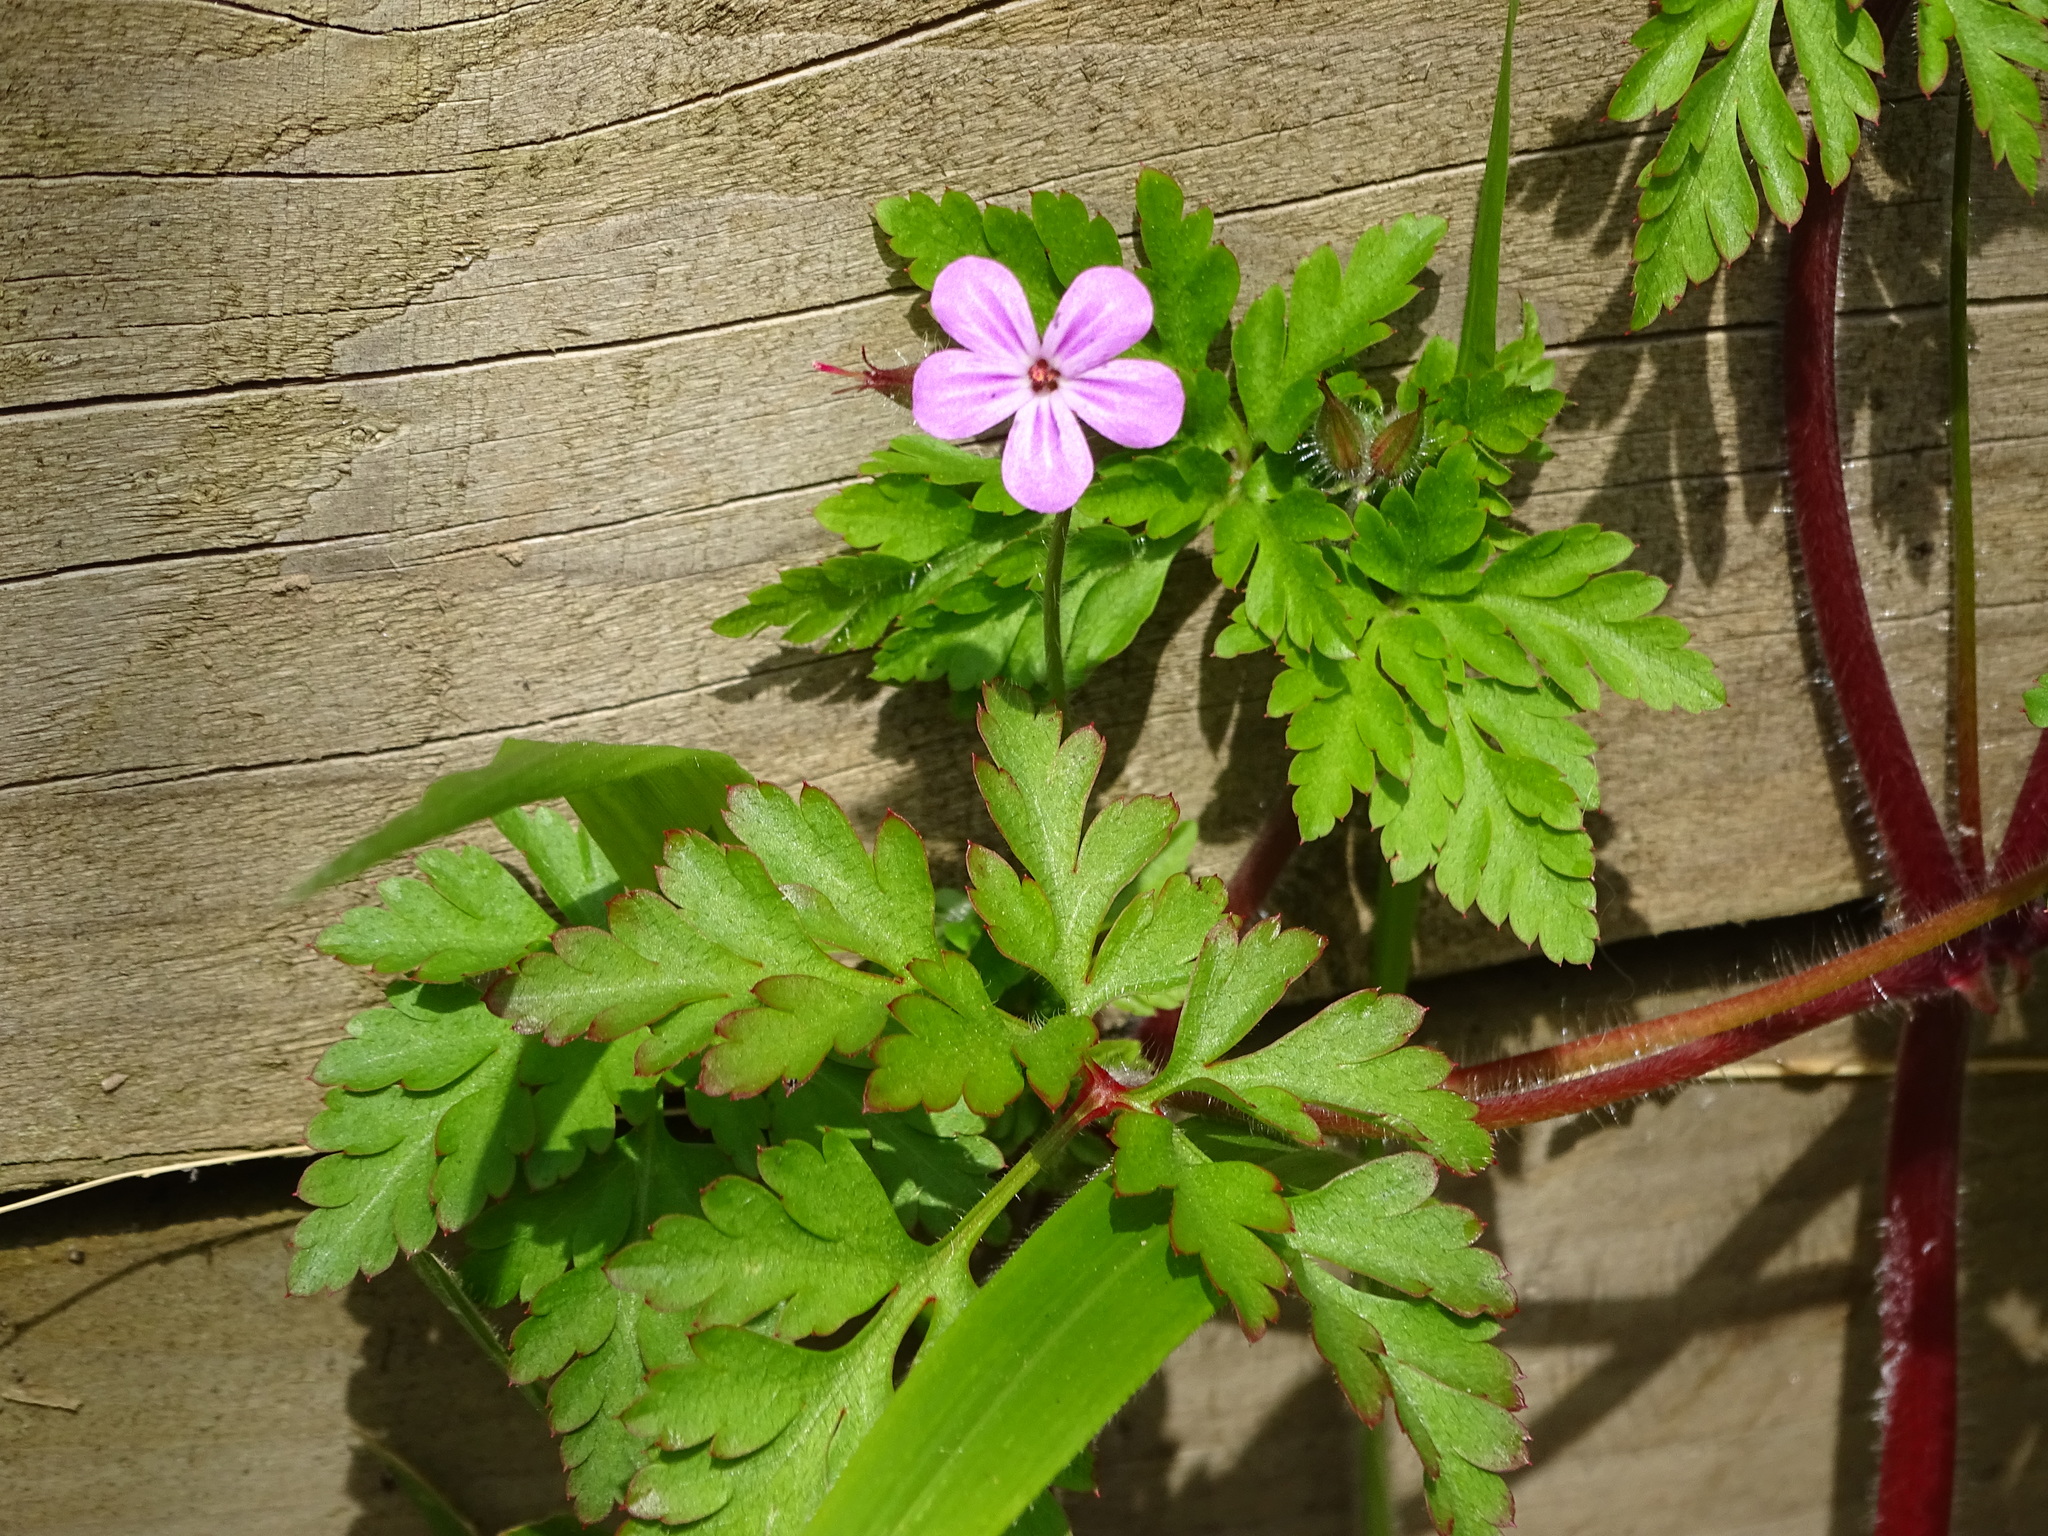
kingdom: Plantae
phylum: Tracheophyta
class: Magnoliopsida
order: Geraniales
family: Geraniaceae
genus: Geranium
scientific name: Geranium robertianum
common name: Herb-robert
